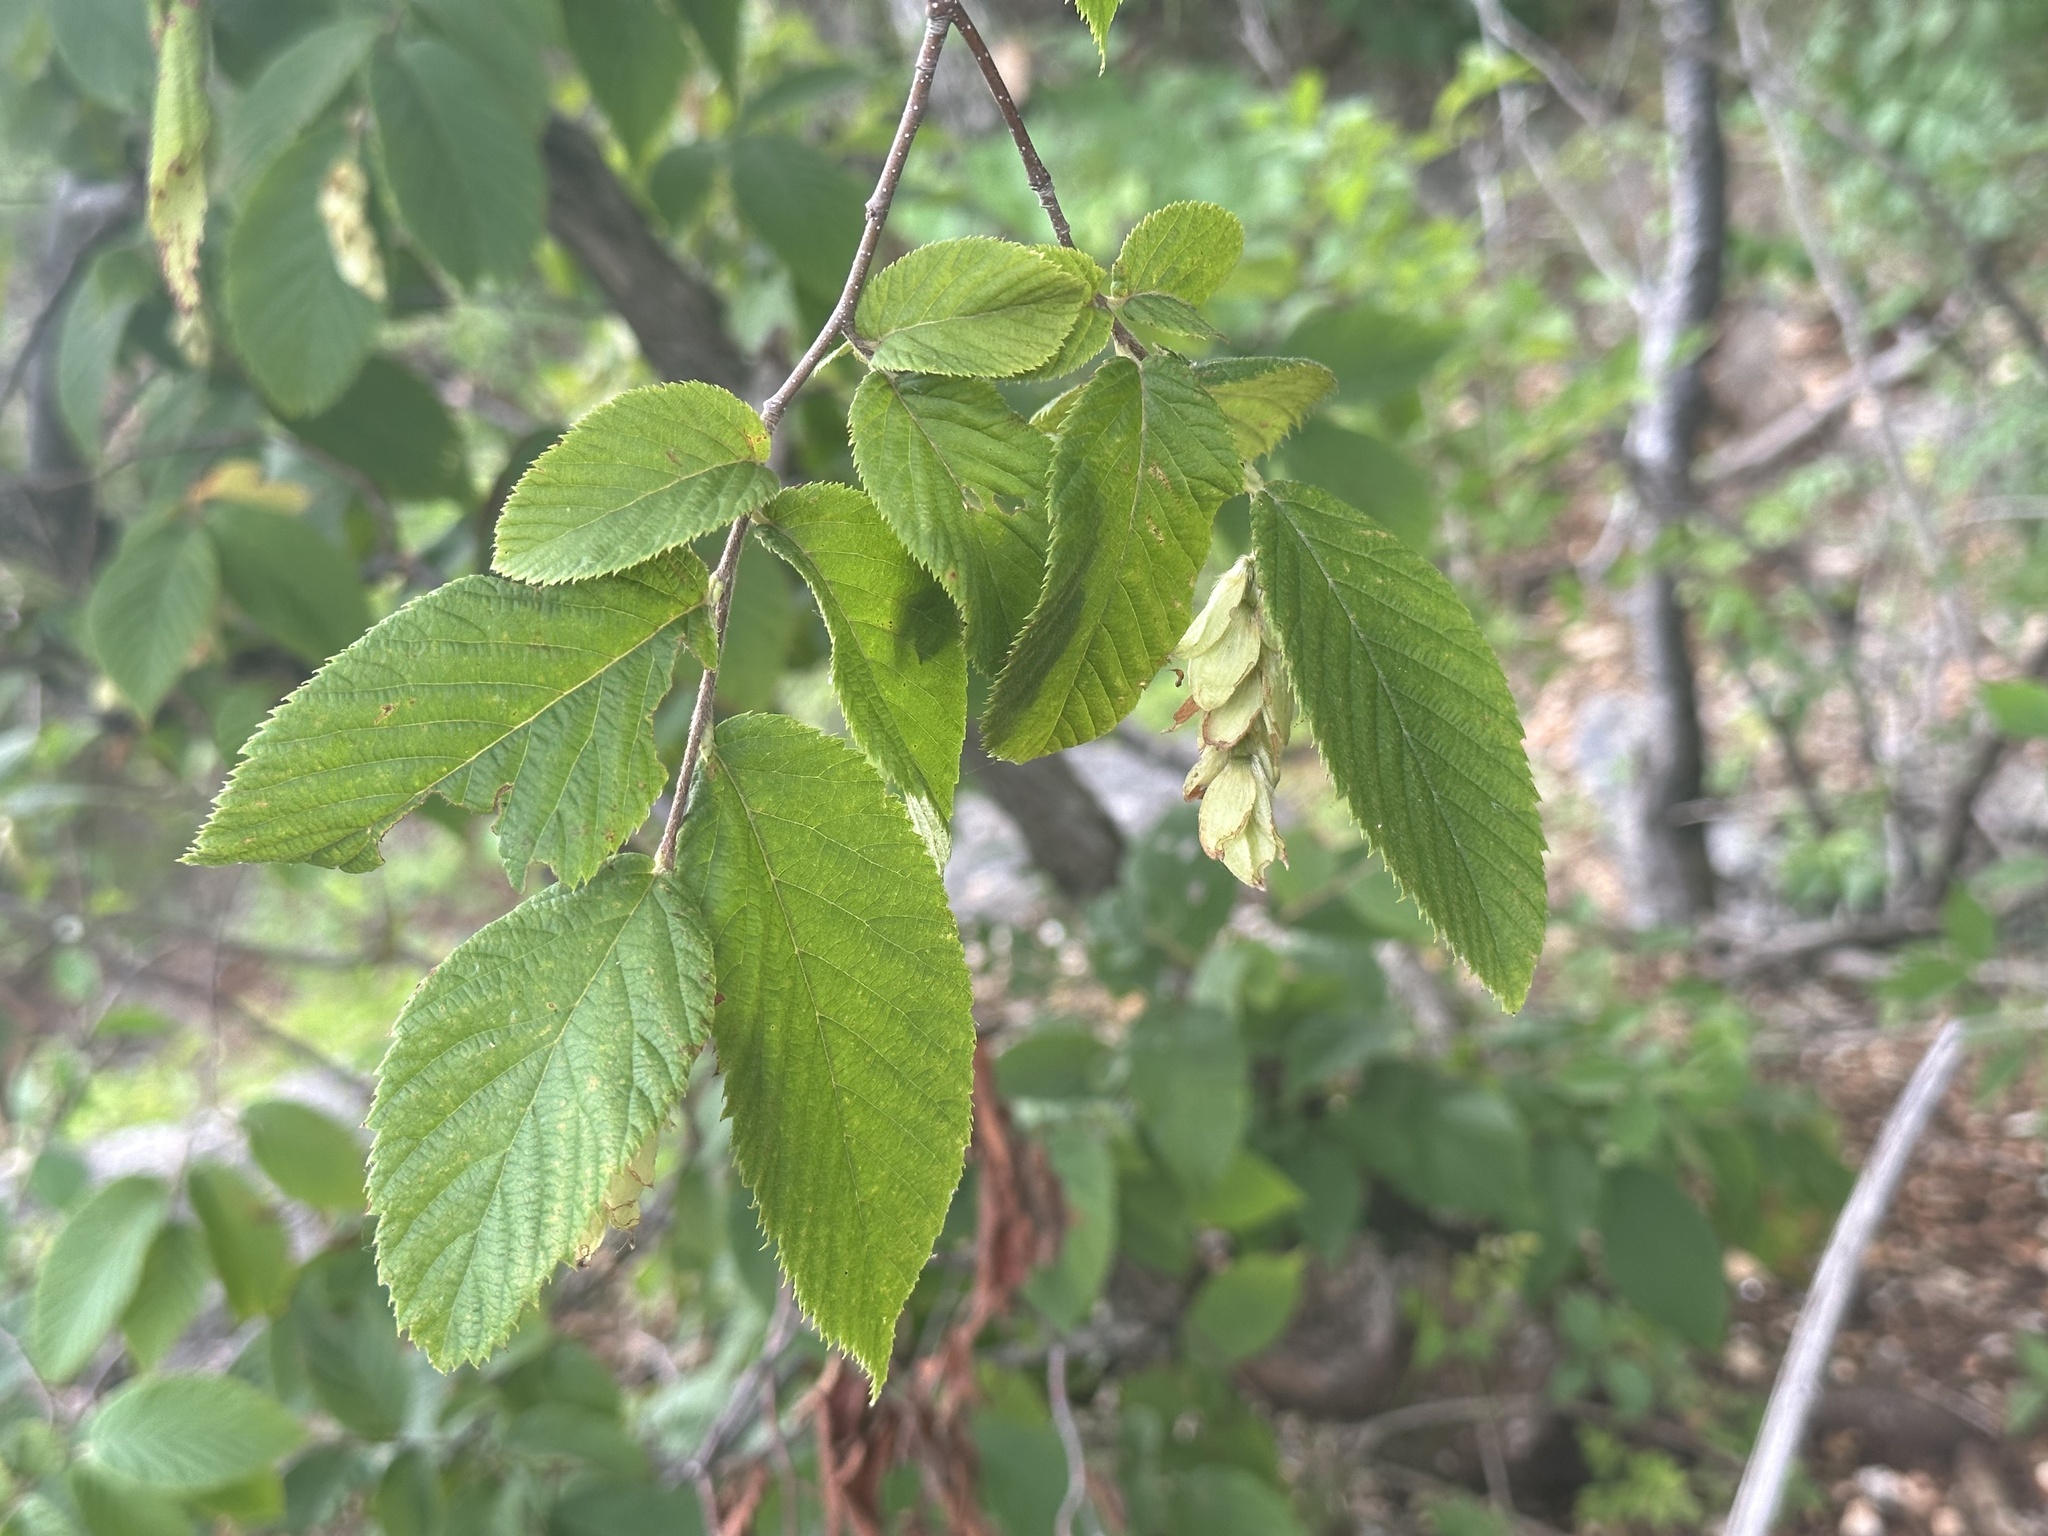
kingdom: Plantae
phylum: Tracheophyta
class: Magnoliopsida
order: Fagales
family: Betulaceae
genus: Ostrya
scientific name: Ostrya virginiana
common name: Ironwood
